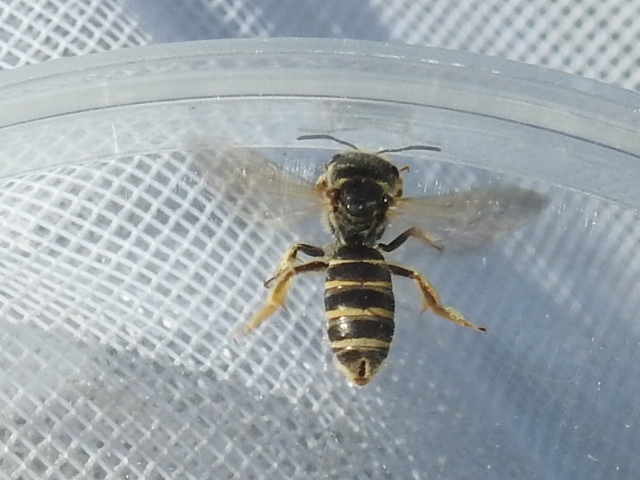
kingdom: Animalia
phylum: Arthropoda
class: Insecta
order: Hymenoptera
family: Halictidae
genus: Halictus
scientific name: Halictus ligatus
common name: Ligated furrow bee
